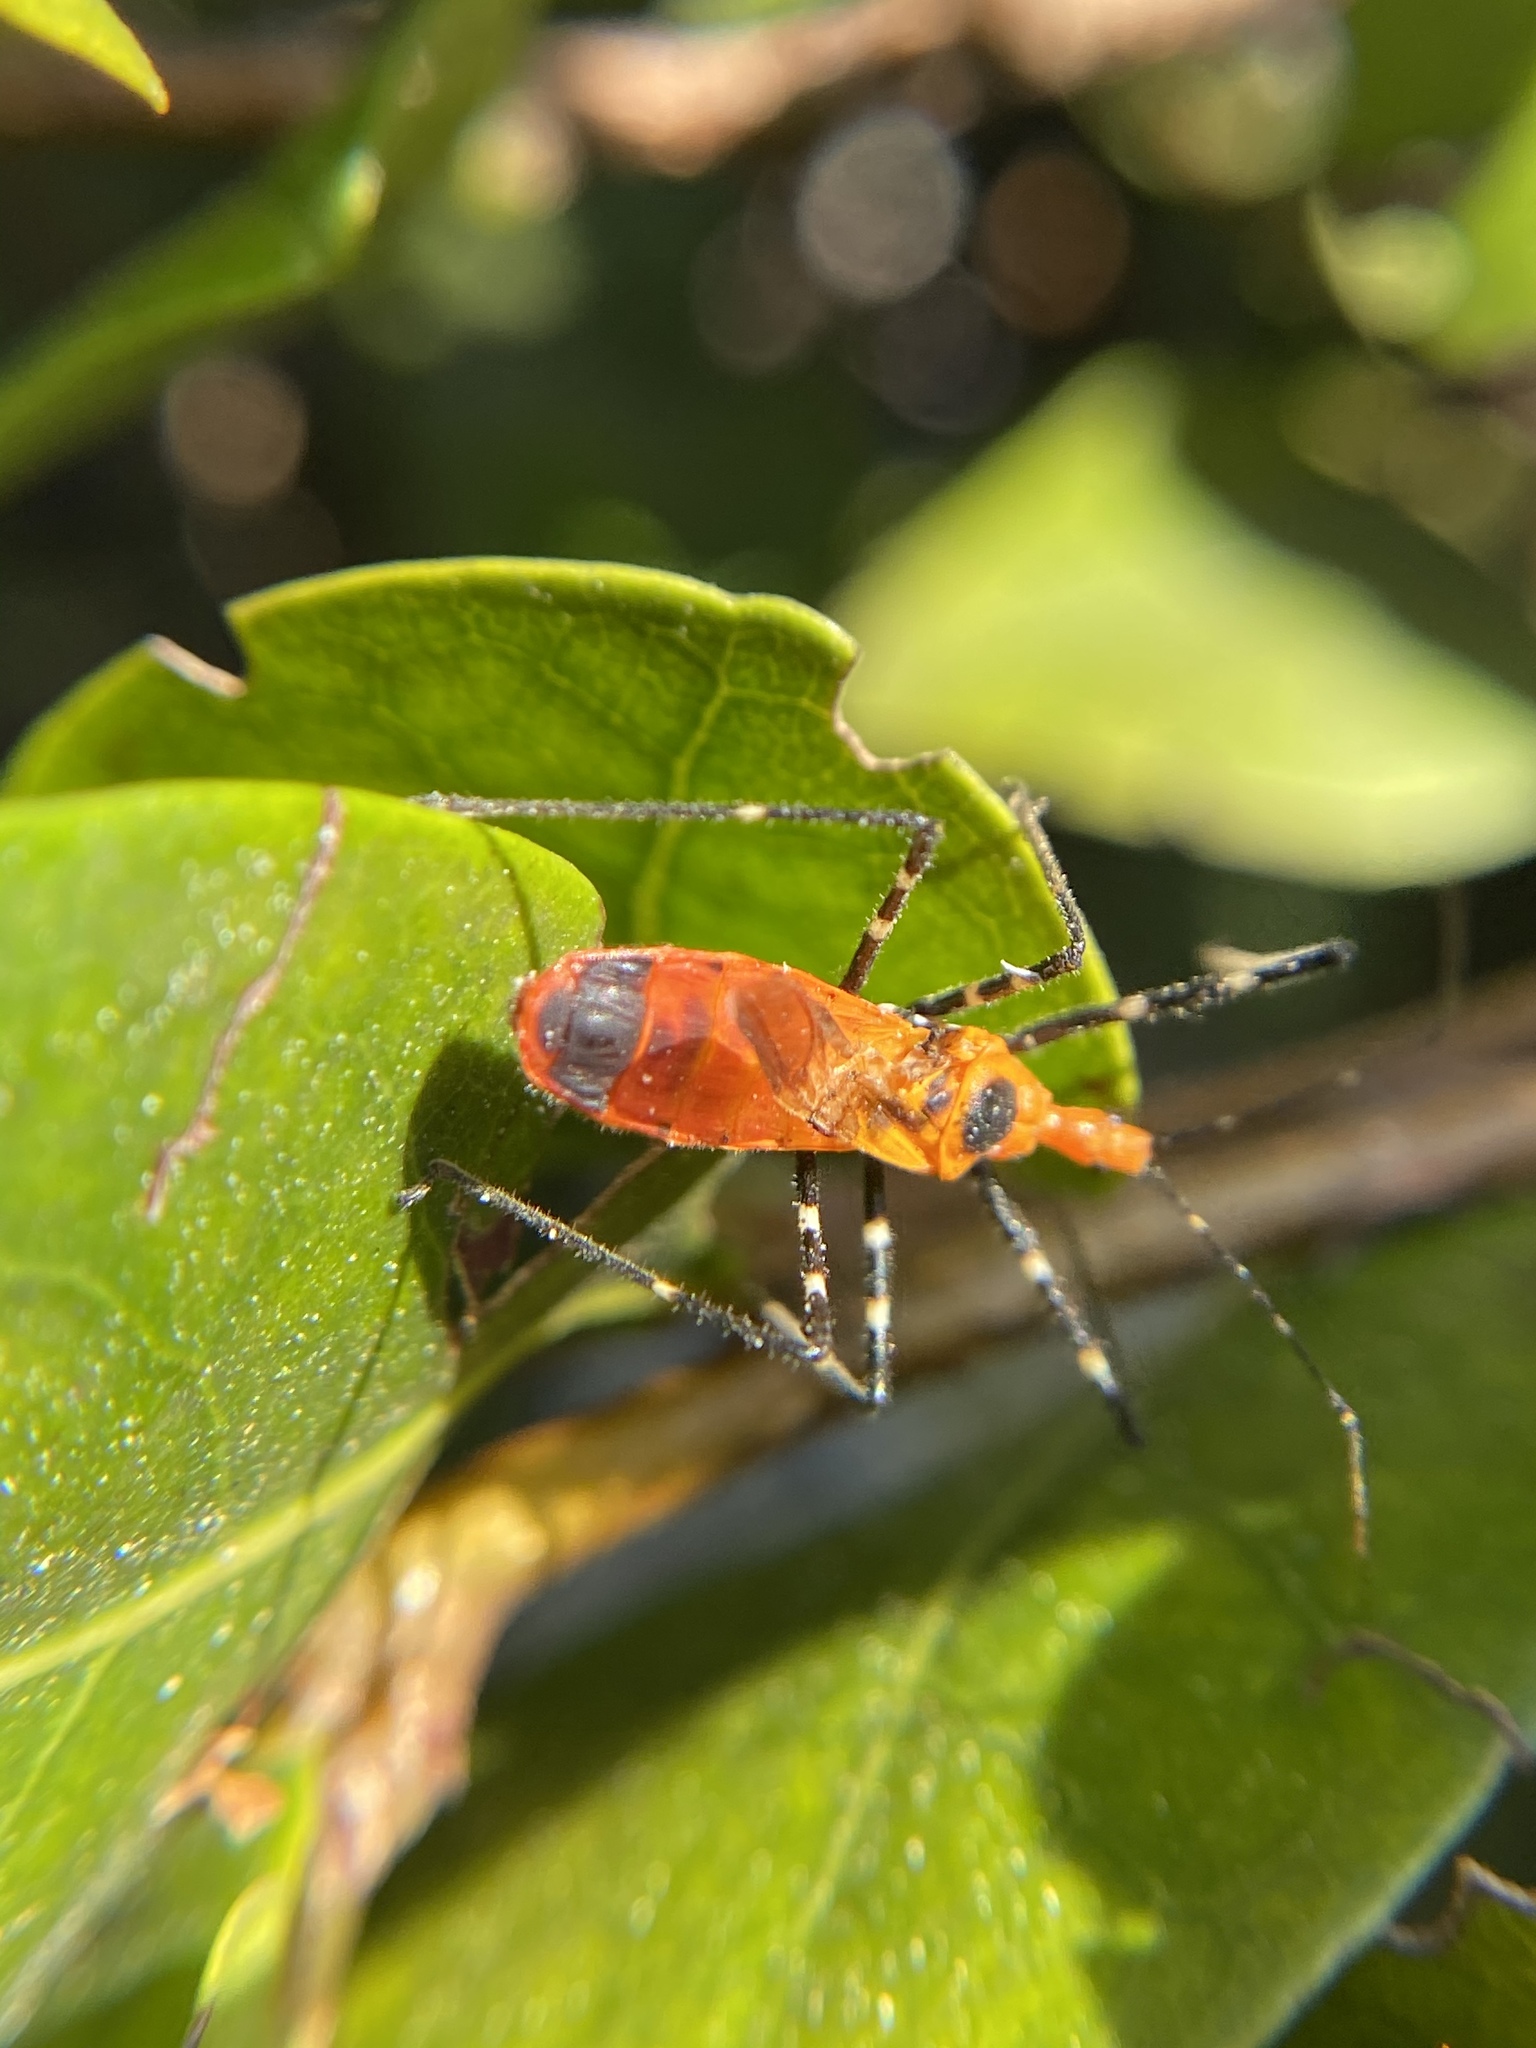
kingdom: Animalia
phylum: Arthropoda
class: Insecta
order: Hemiptera
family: Reduviidae
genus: Zelus
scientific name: Zelus longipes
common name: Milkweed assassin bug
